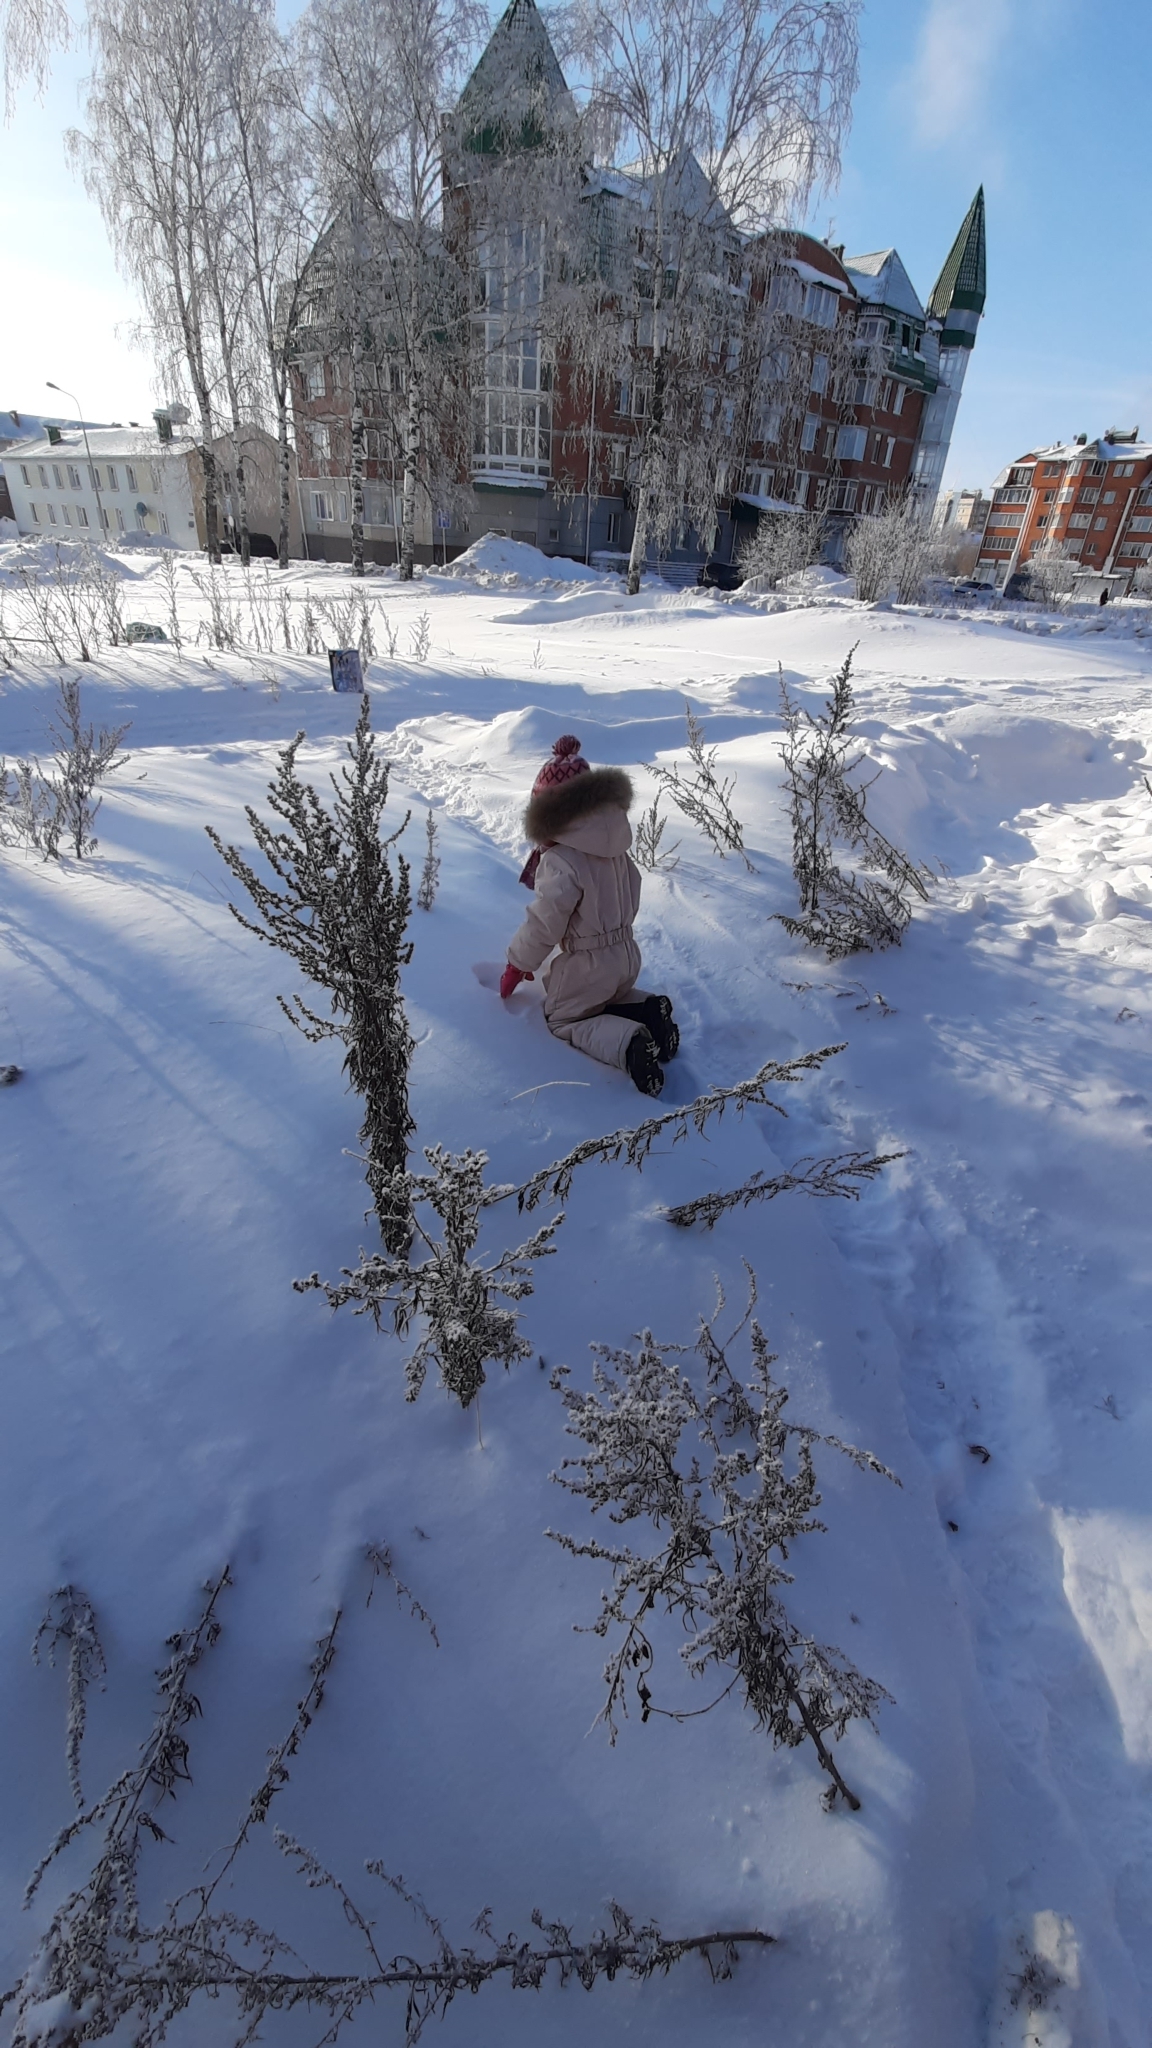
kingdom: Plantae
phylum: Tracheophyta
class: Magnoliopsida
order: Asterales
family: Asteraceae
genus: Artemisia
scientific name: Artemisia vulgaris
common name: Mugwort
